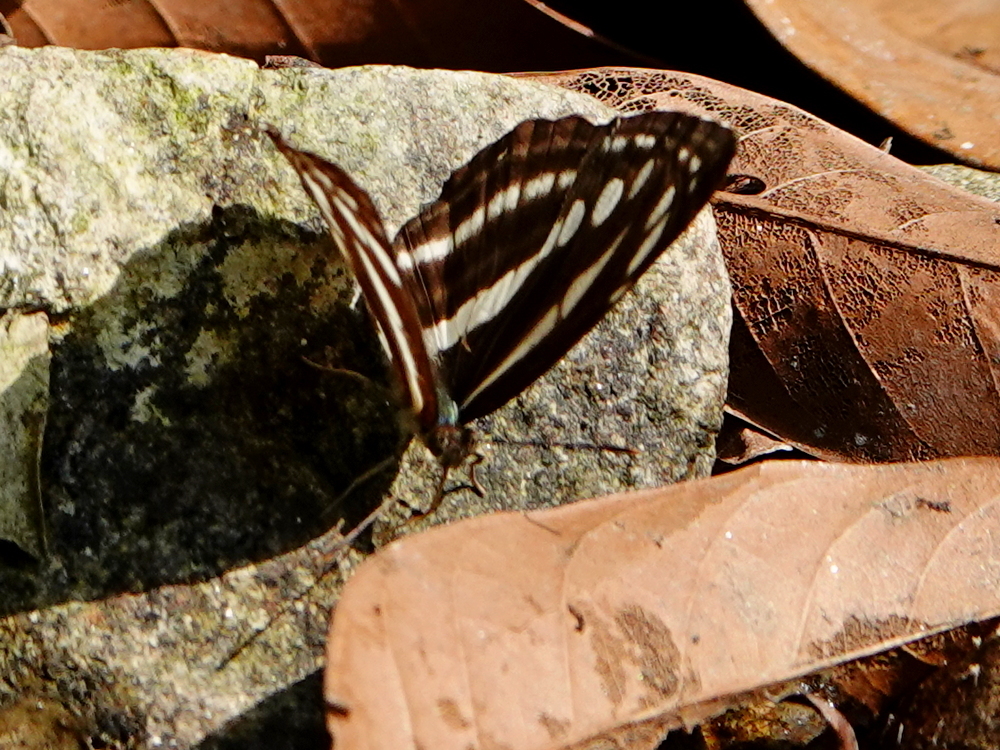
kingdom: Animalia
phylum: Arthropoda
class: Insecta
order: Lepidoptera
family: Nymphalidae
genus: Neptis
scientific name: Neptis nata
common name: Sullied brown sailer
